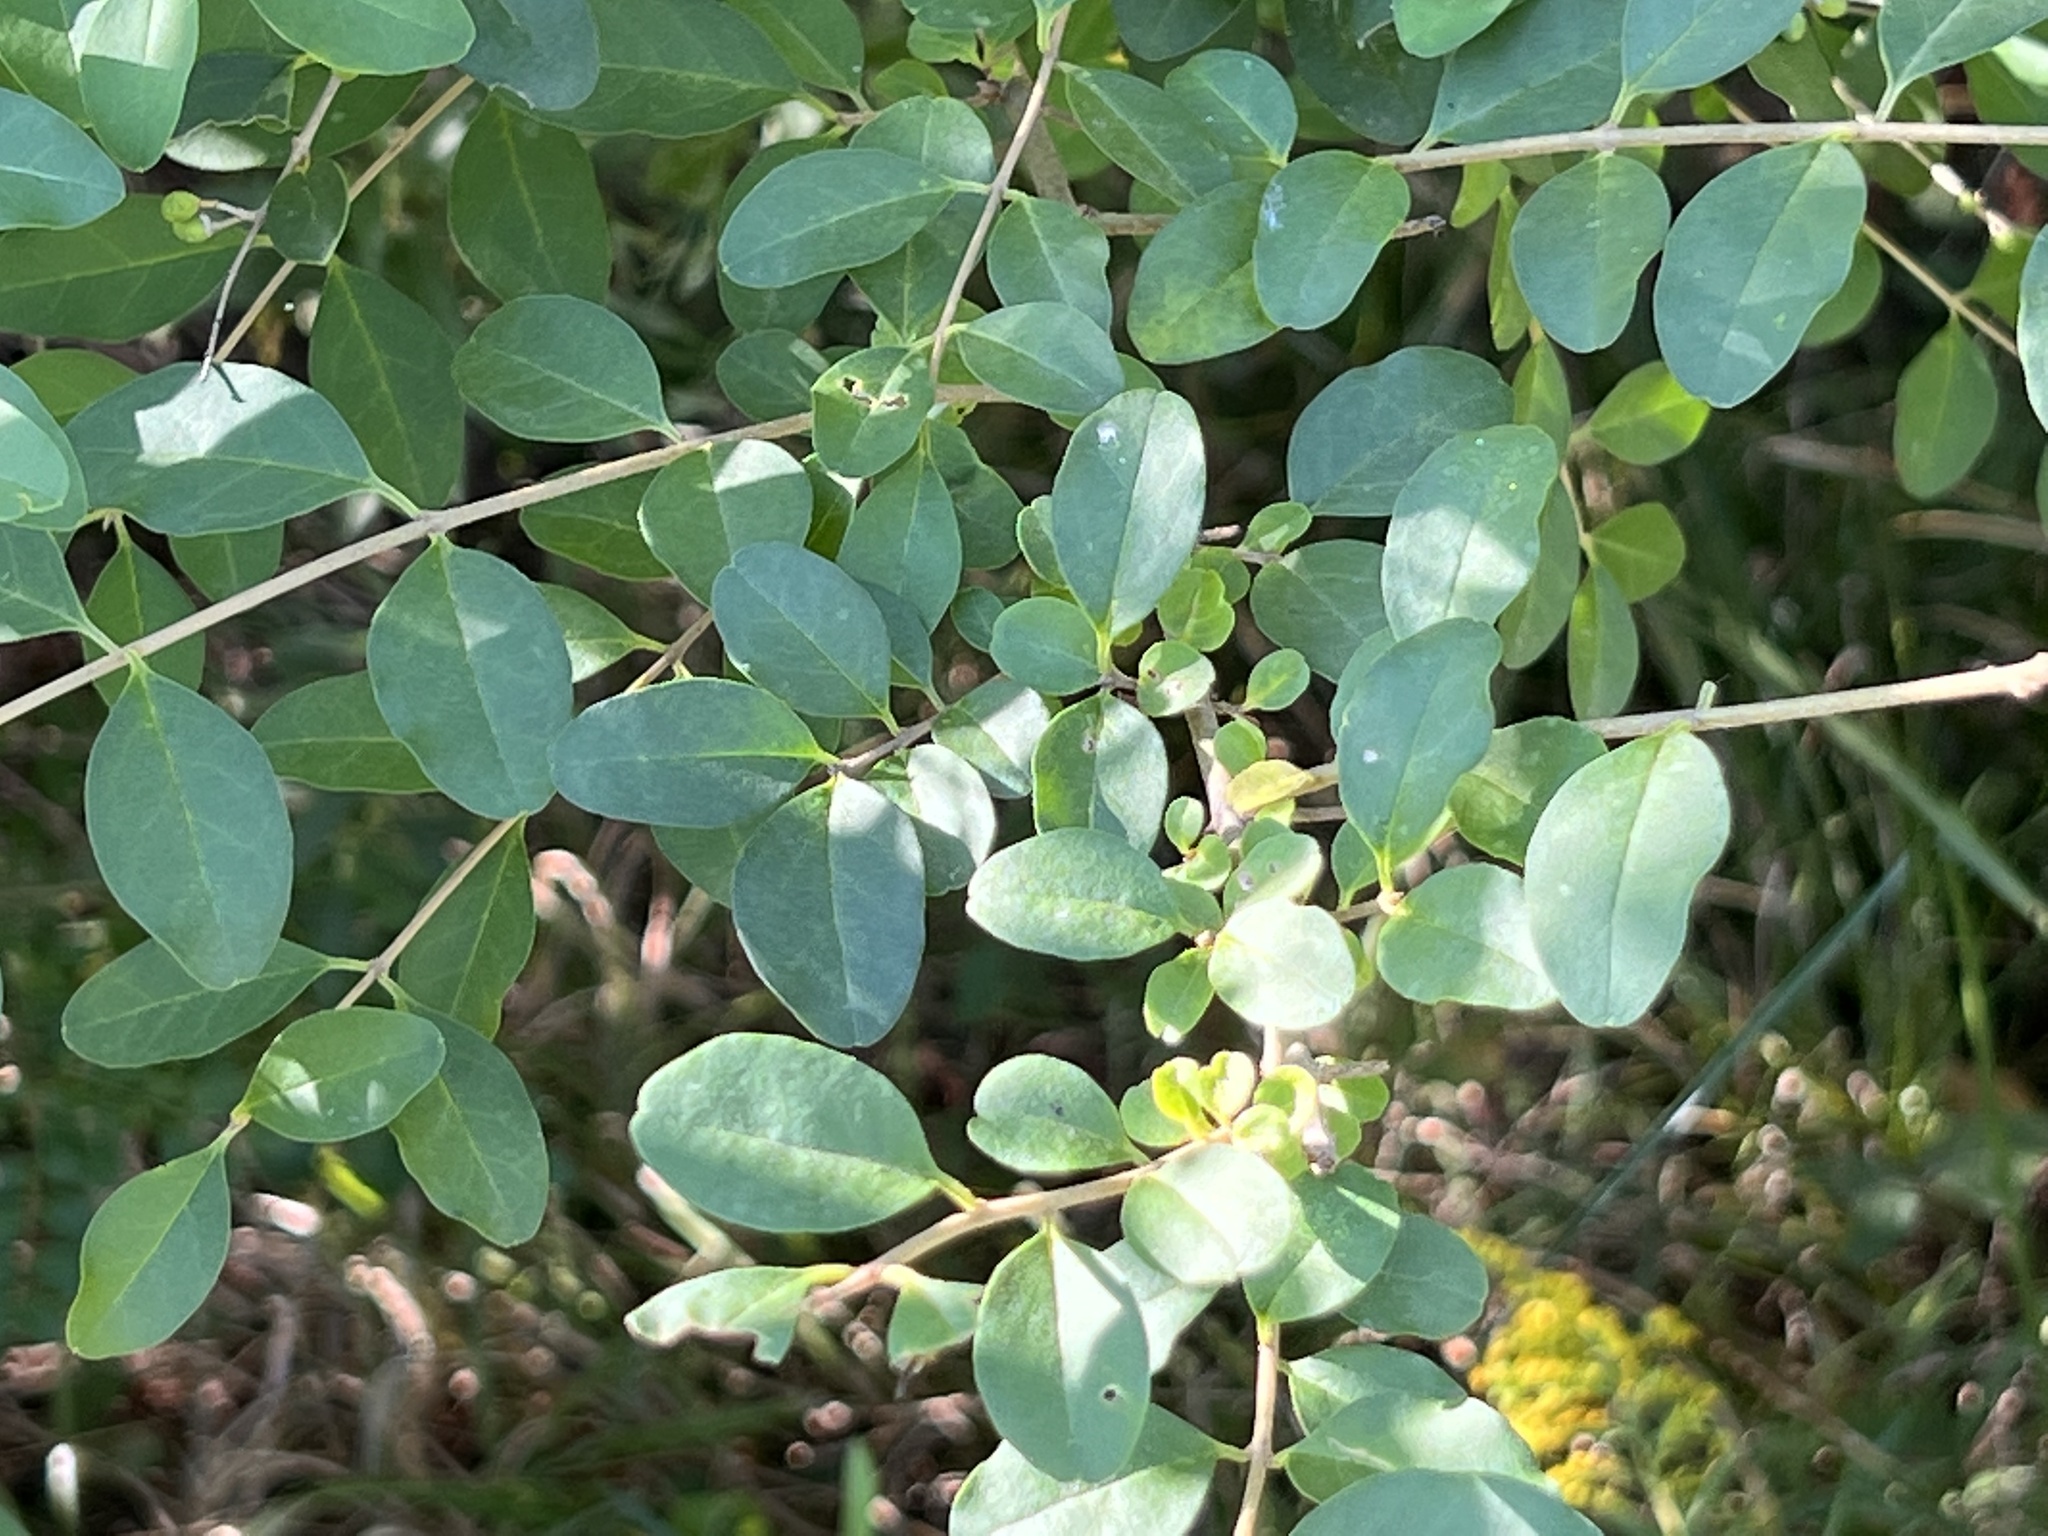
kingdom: Plantae
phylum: Tracheophyta
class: Magnoliopsida
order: Lamiales
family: Oleaceae
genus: Ligustrum
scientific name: Ligustrum sinense
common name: Chinese privet
